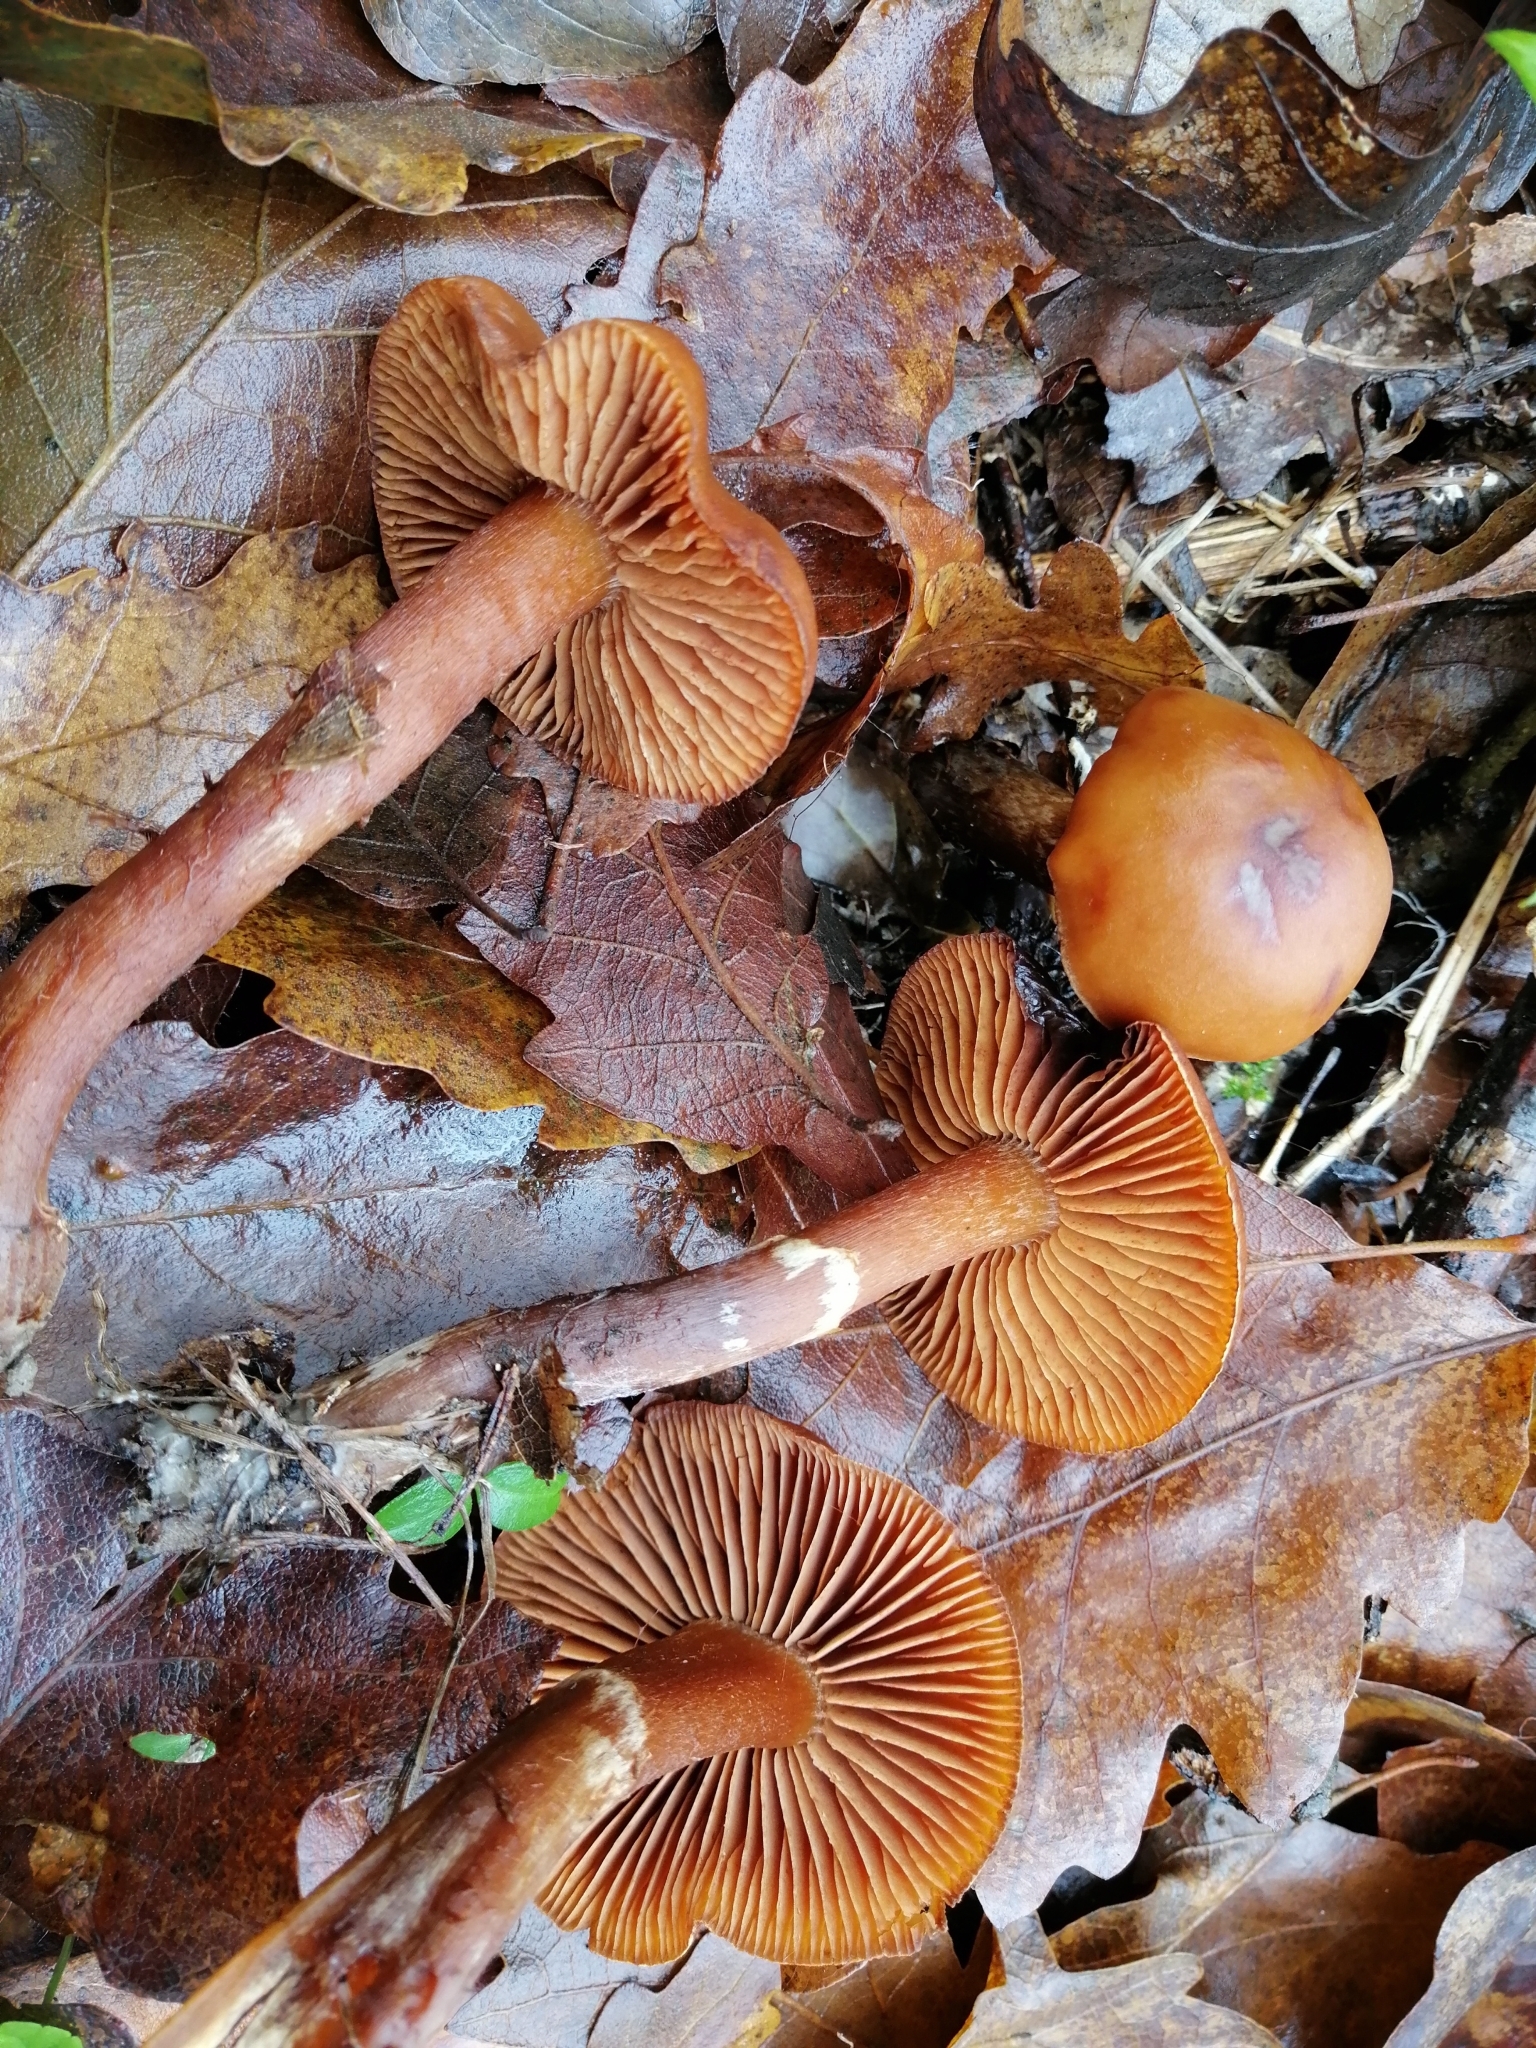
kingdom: Fungi
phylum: Basidiomycota
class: Agaricomycetes
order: Agaricales
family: Cortinariaceae
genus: Cortinarius
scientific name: Cortinarius lacustris
